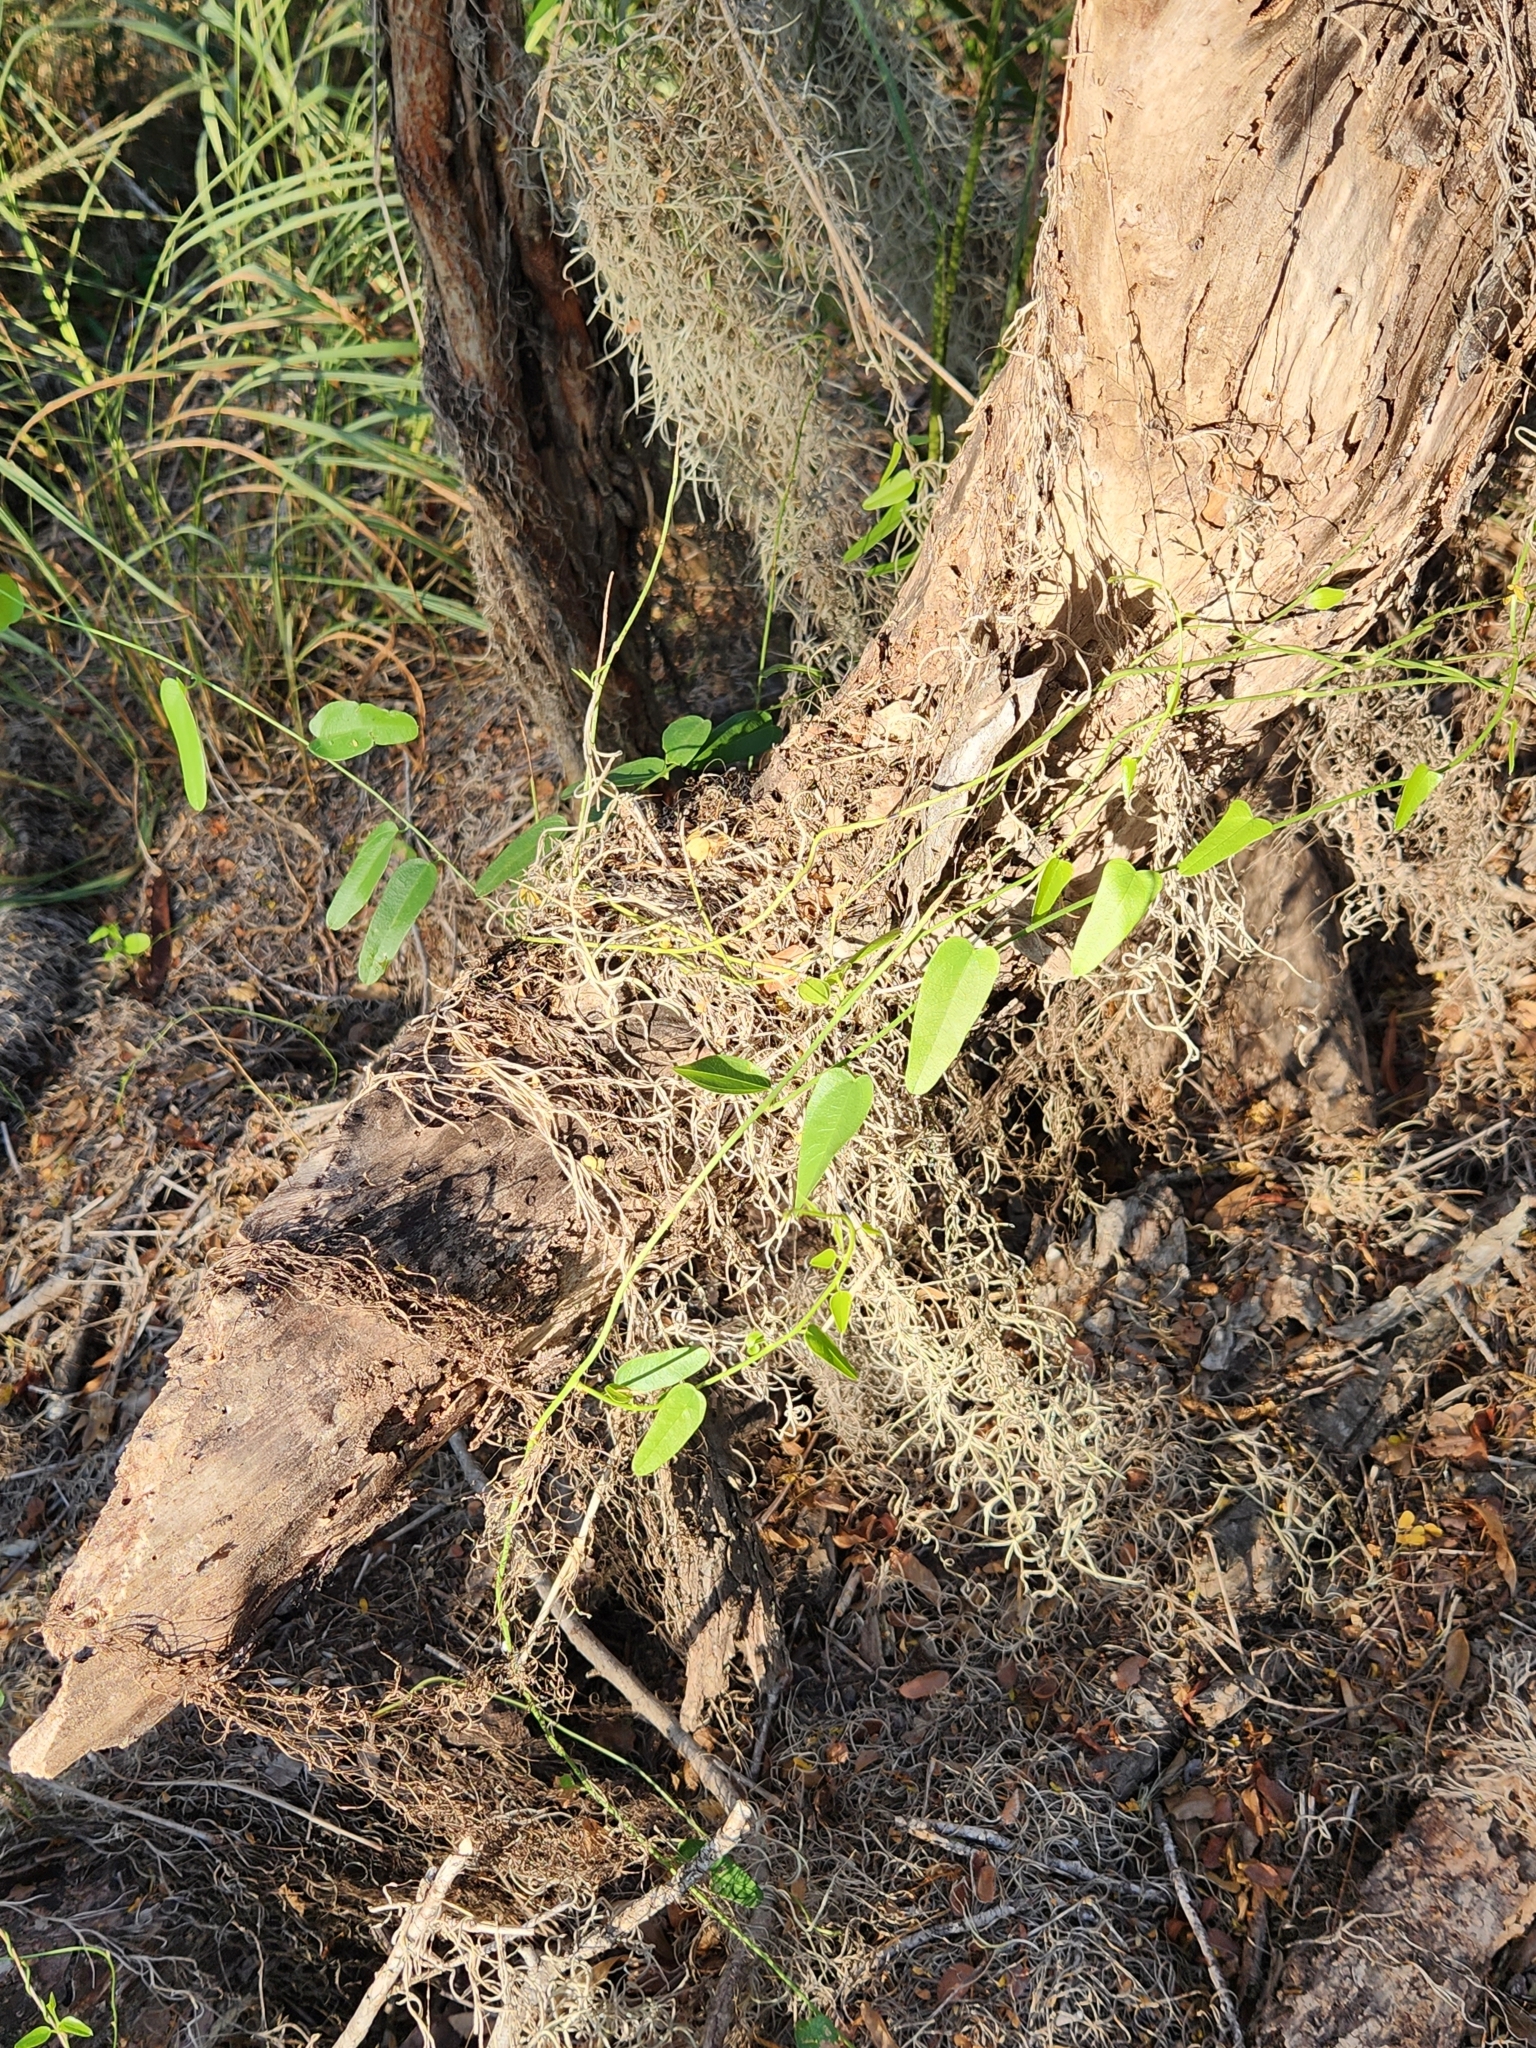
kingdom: Plantae
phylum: Tracheophyta
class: Magnoliopsida
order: Ranunculales
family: Menispermaceae
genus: Cocculus
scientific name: Cocculus diversifolius
